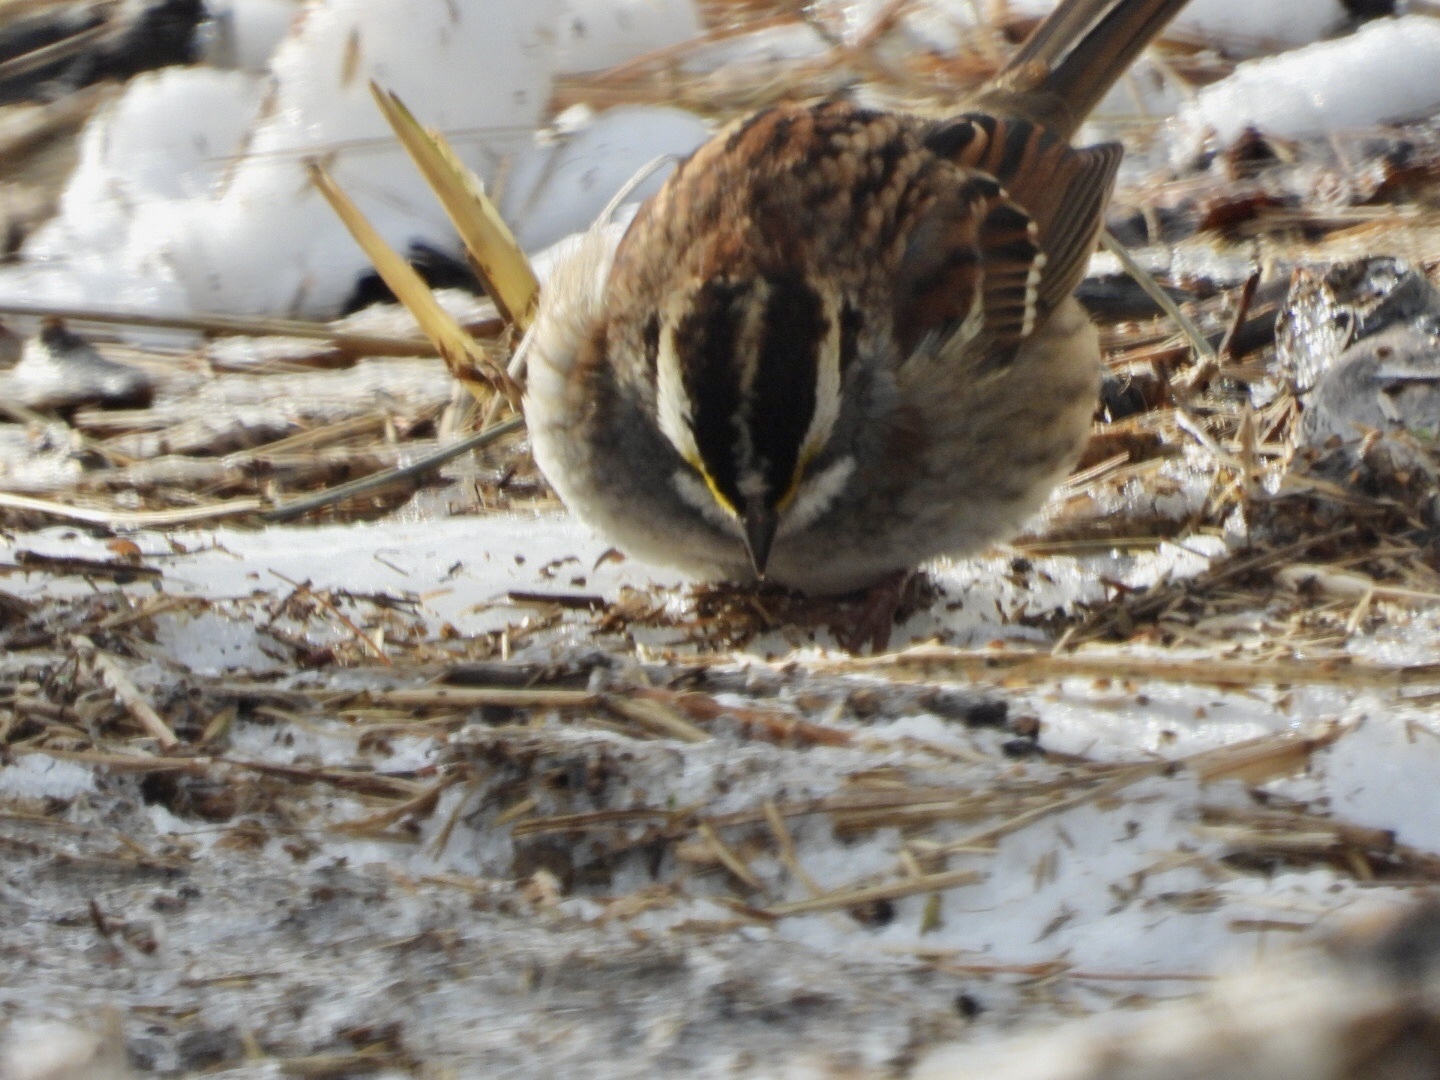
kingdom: Animalia
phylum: Chordata
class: Aves
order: Passeriformes
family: Passerellidae
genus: Zonotrichia
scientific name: Zonotrichia albicollis
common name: White-throated sparrow
